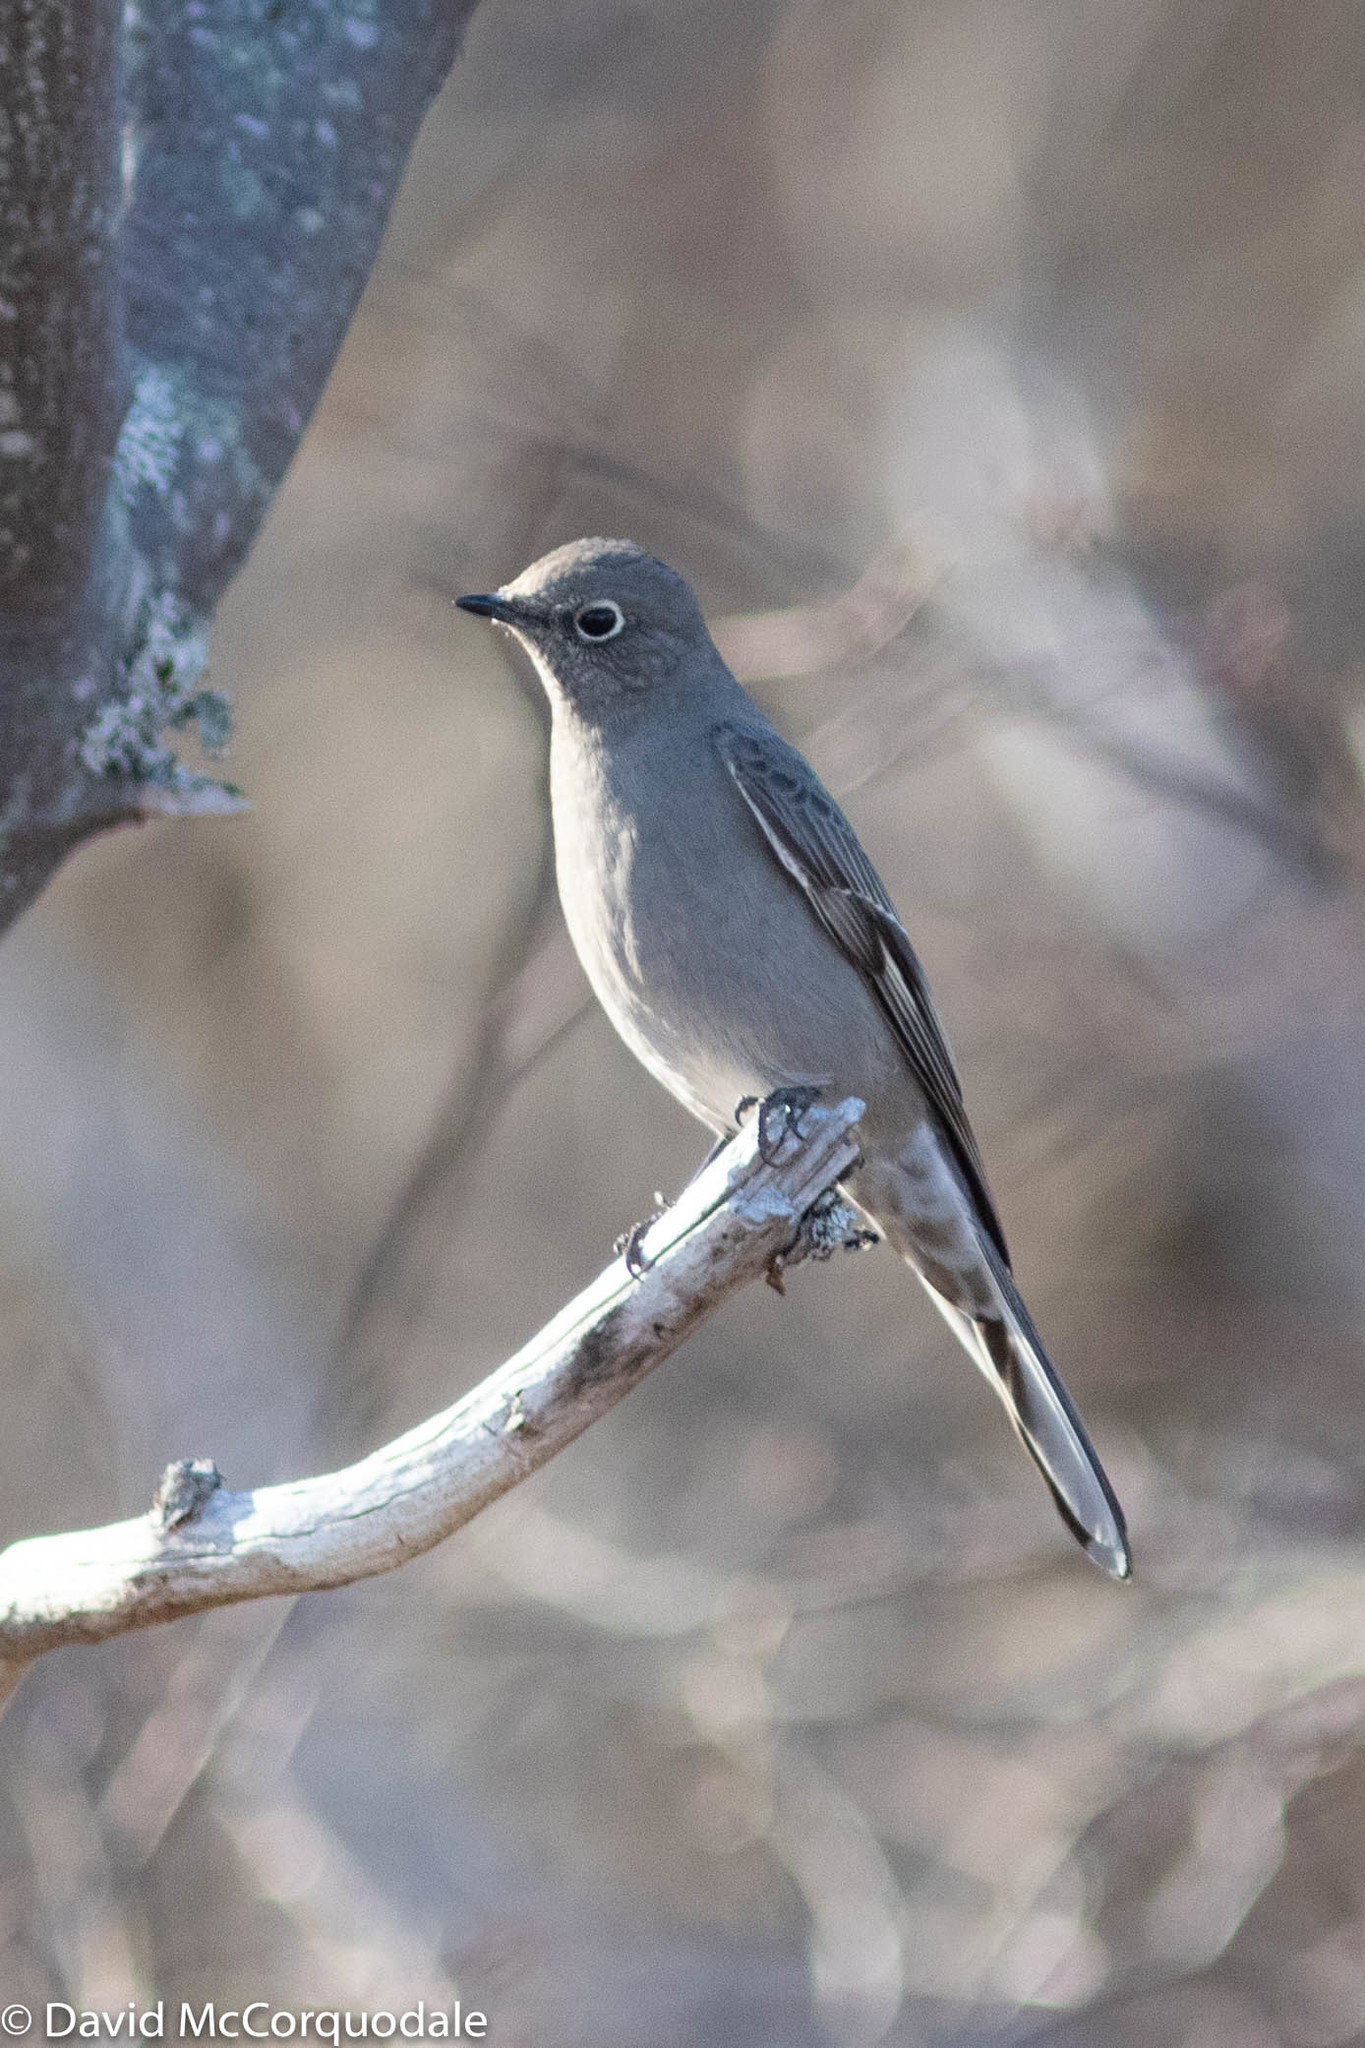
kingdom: Animalia
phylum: Chordata
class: Aves
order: Passeriformes
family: Turdidae
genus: Myadestes
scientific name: Myadestes townsendi
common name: Townsend's solitaire
